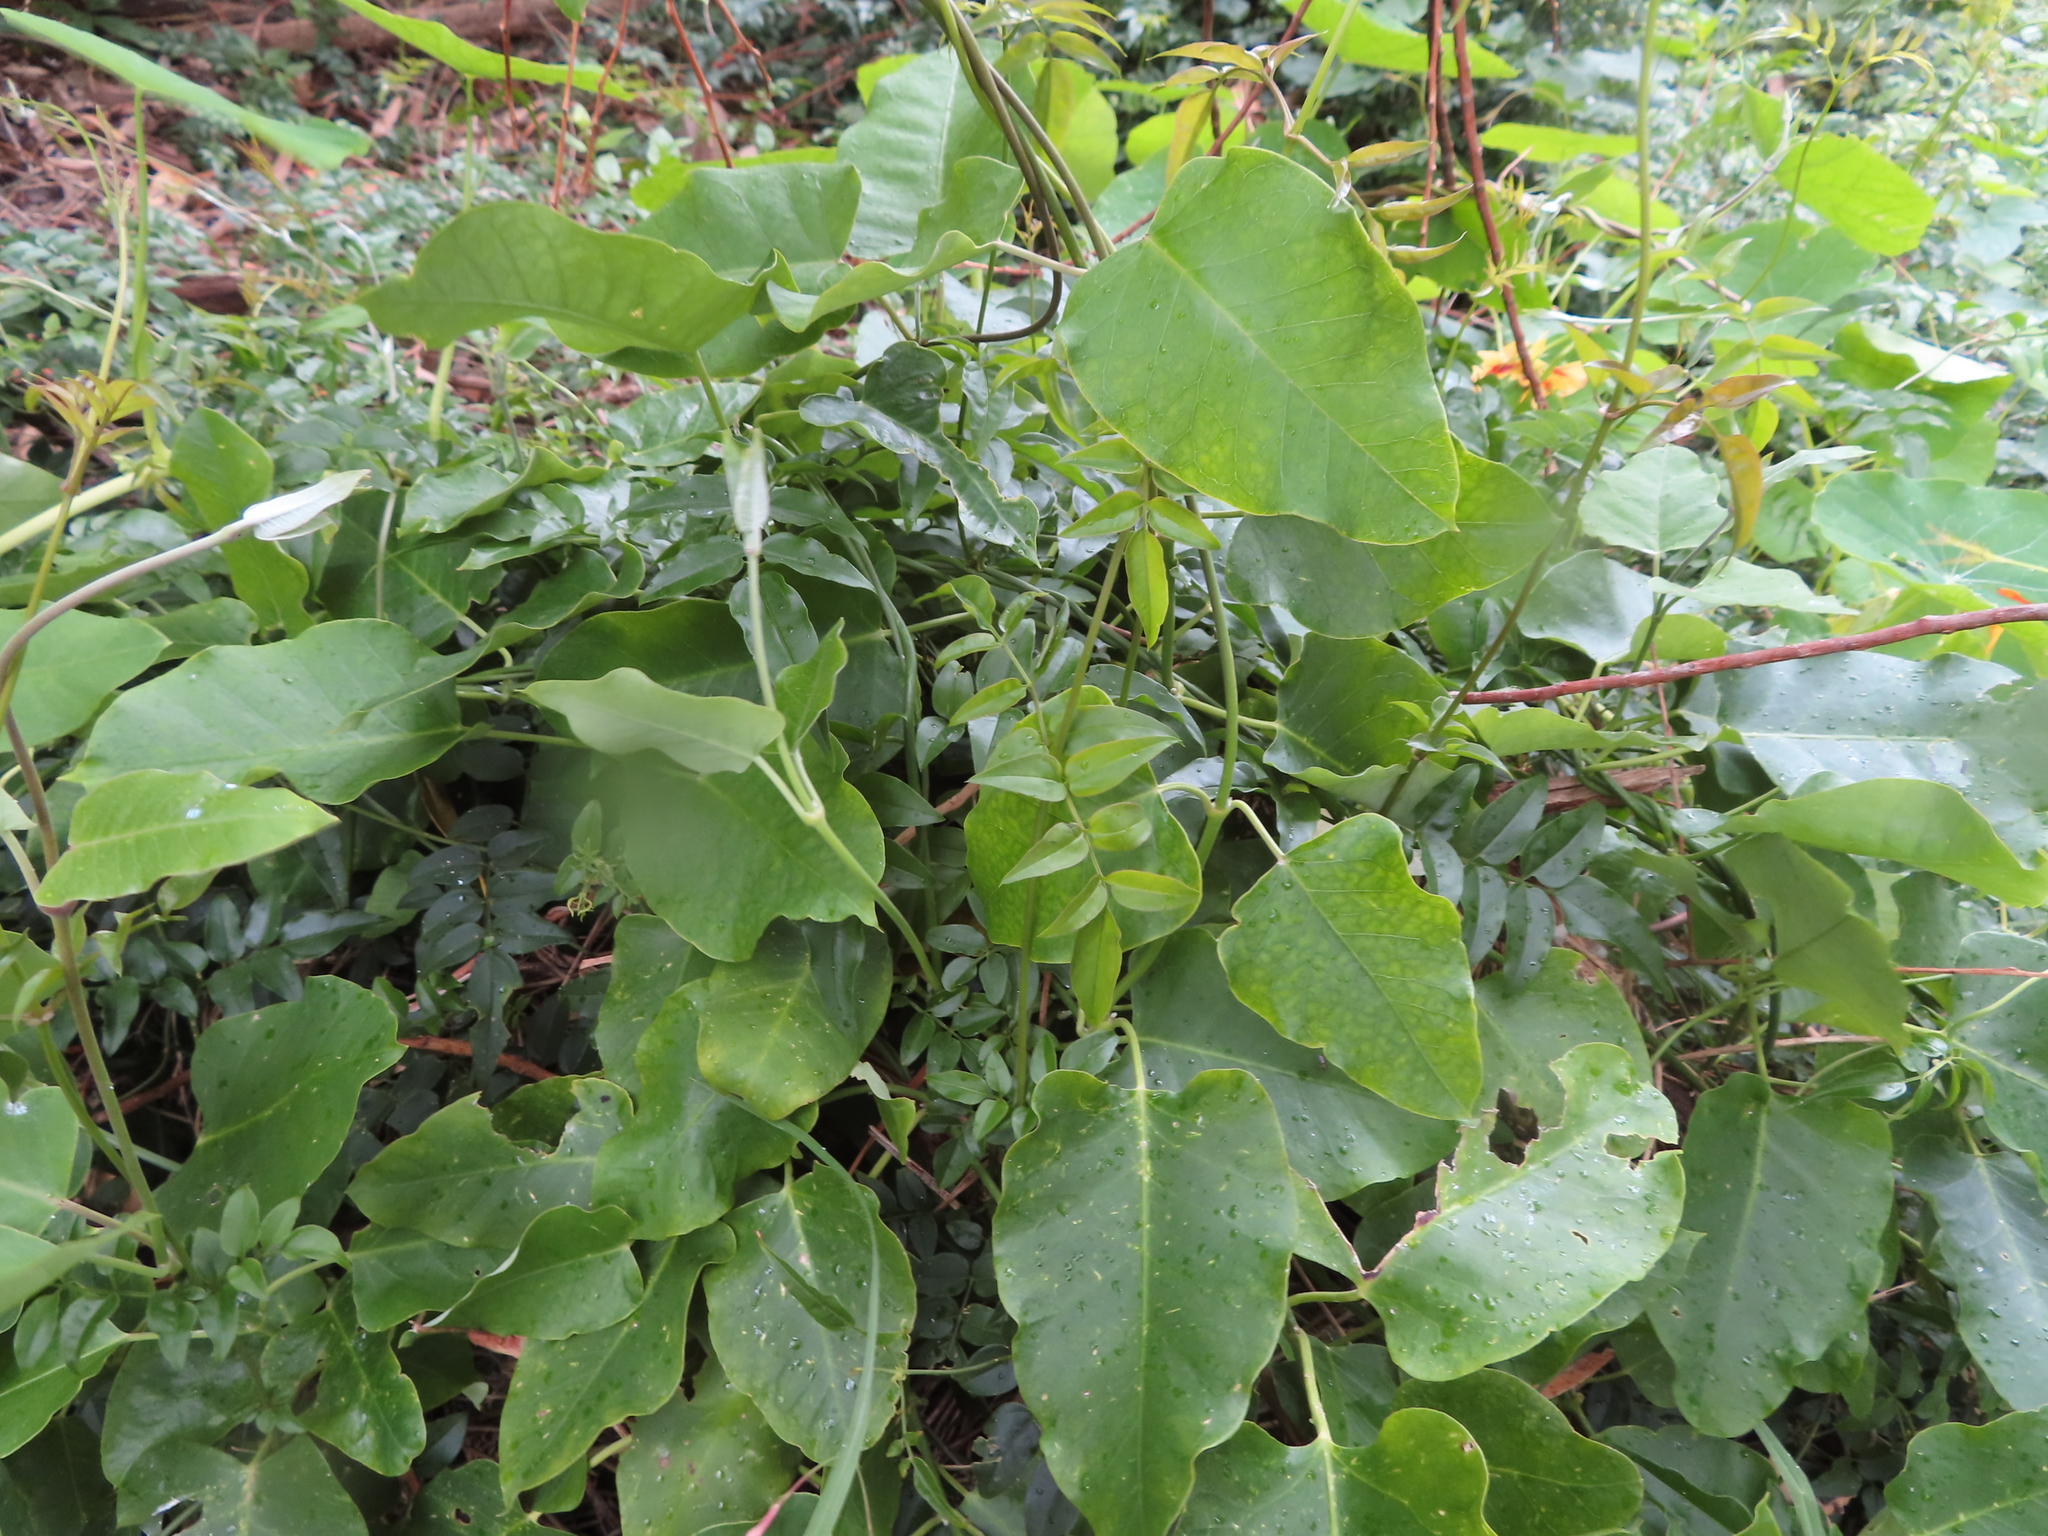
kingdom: Plantae
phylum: Tracheophyta
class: Magnoliopsida
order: Gentianales
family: Apocynaceae
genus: Araujia
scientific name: Araujia sericifera
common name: White bladderflower
